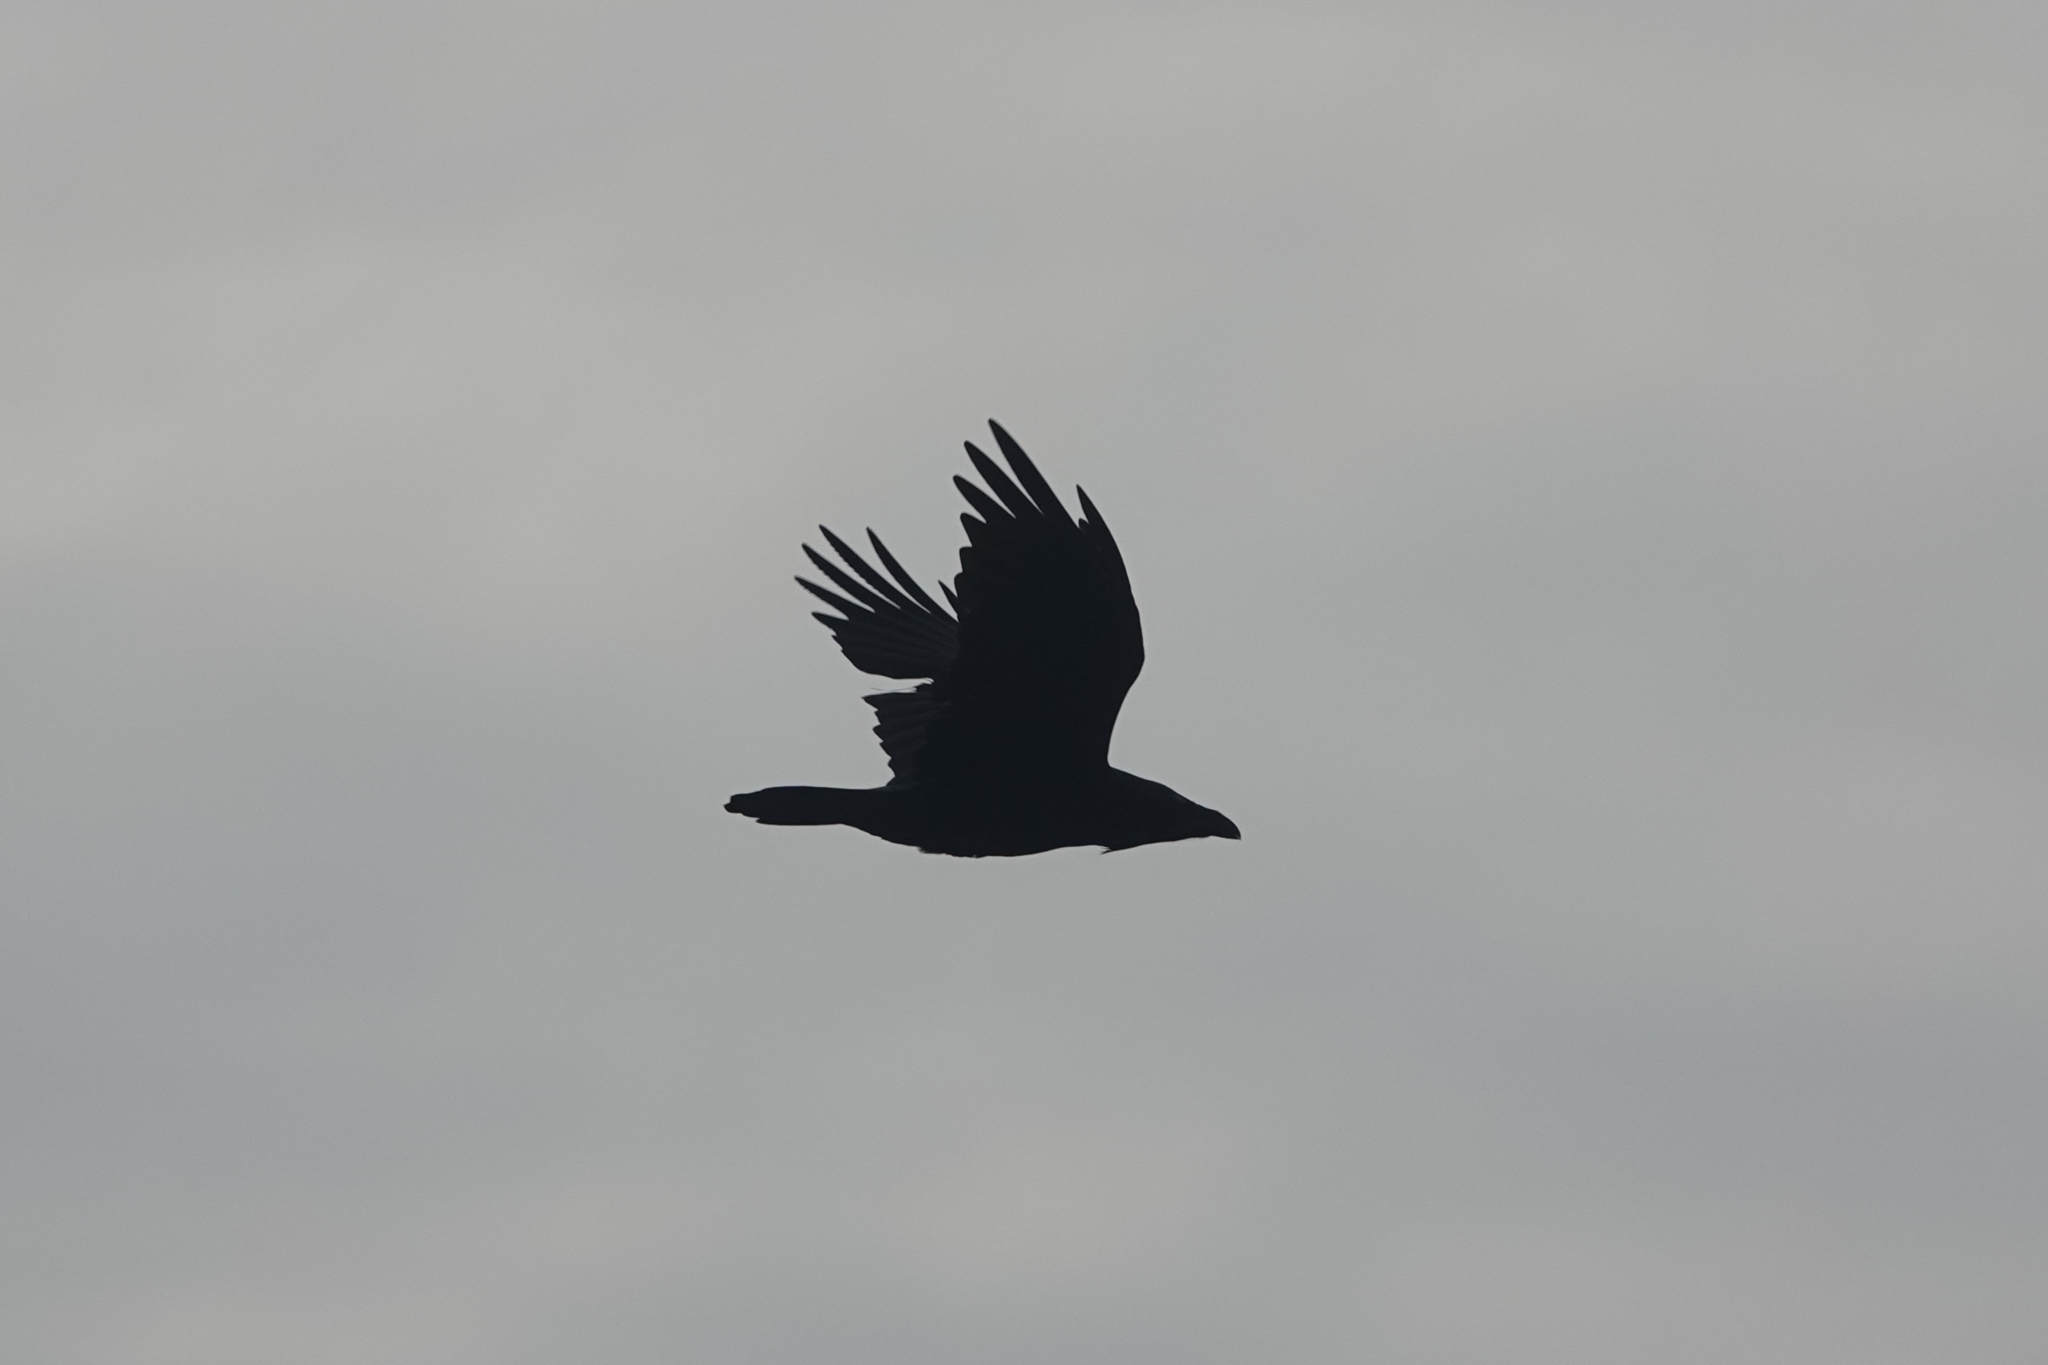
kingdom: Animalia
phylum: Chordata
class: Aves
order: Passeriformes
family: Corvidae
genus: Corvus
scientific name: Corvus corax
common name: Common raven
